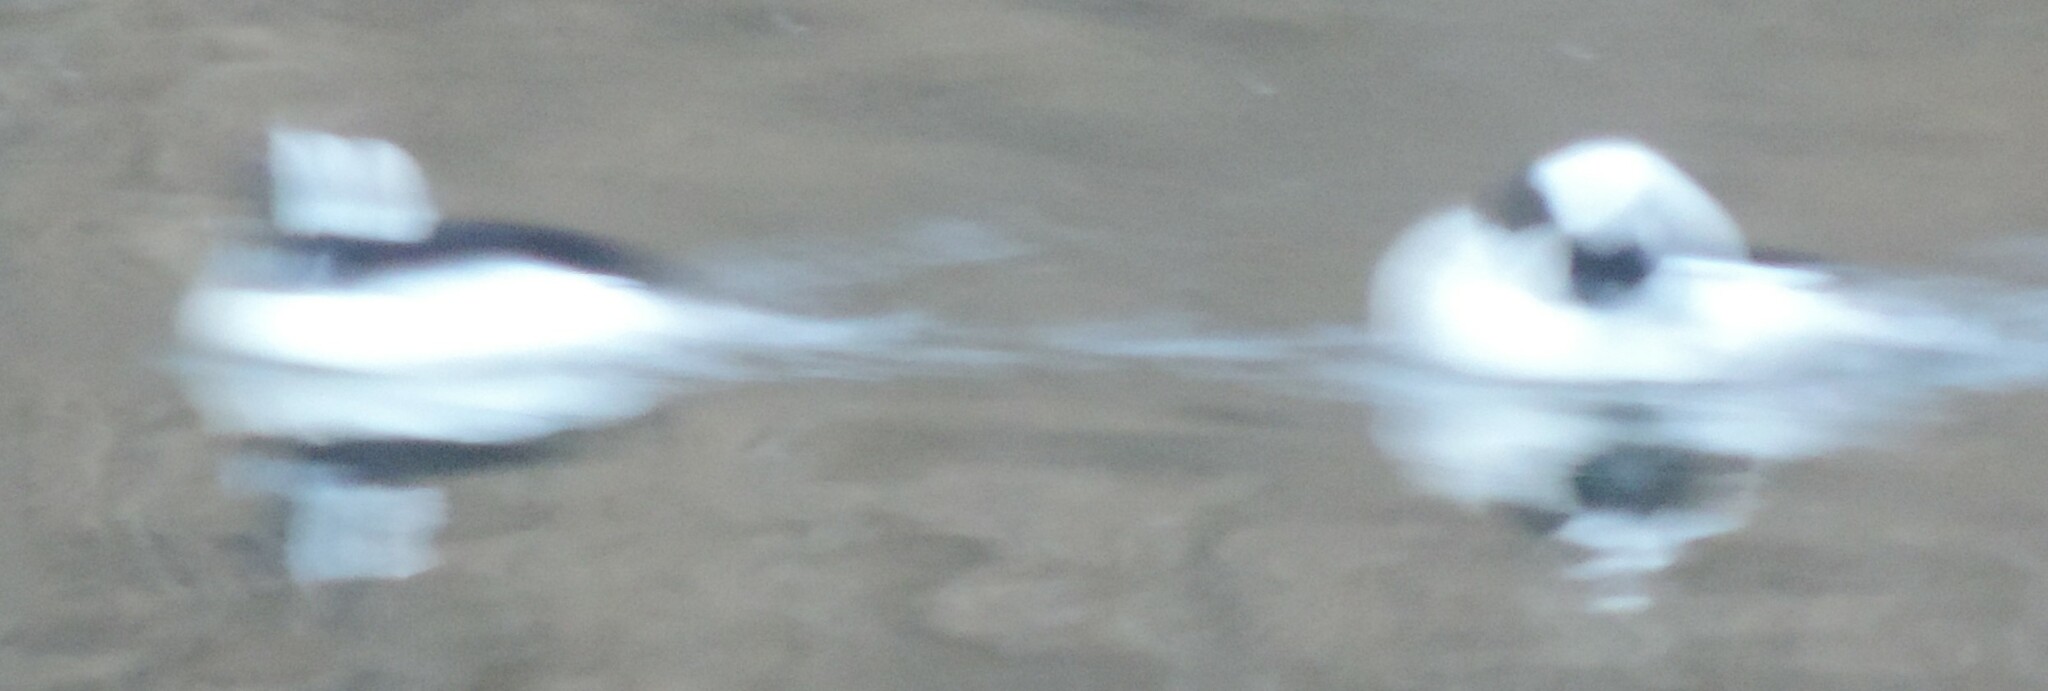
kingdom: Animalia
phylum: Chordata
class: Aves
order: Anseriformes
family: Anatidae
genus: Bucephala
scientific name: Bucephala albeola
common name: Bufflehead
